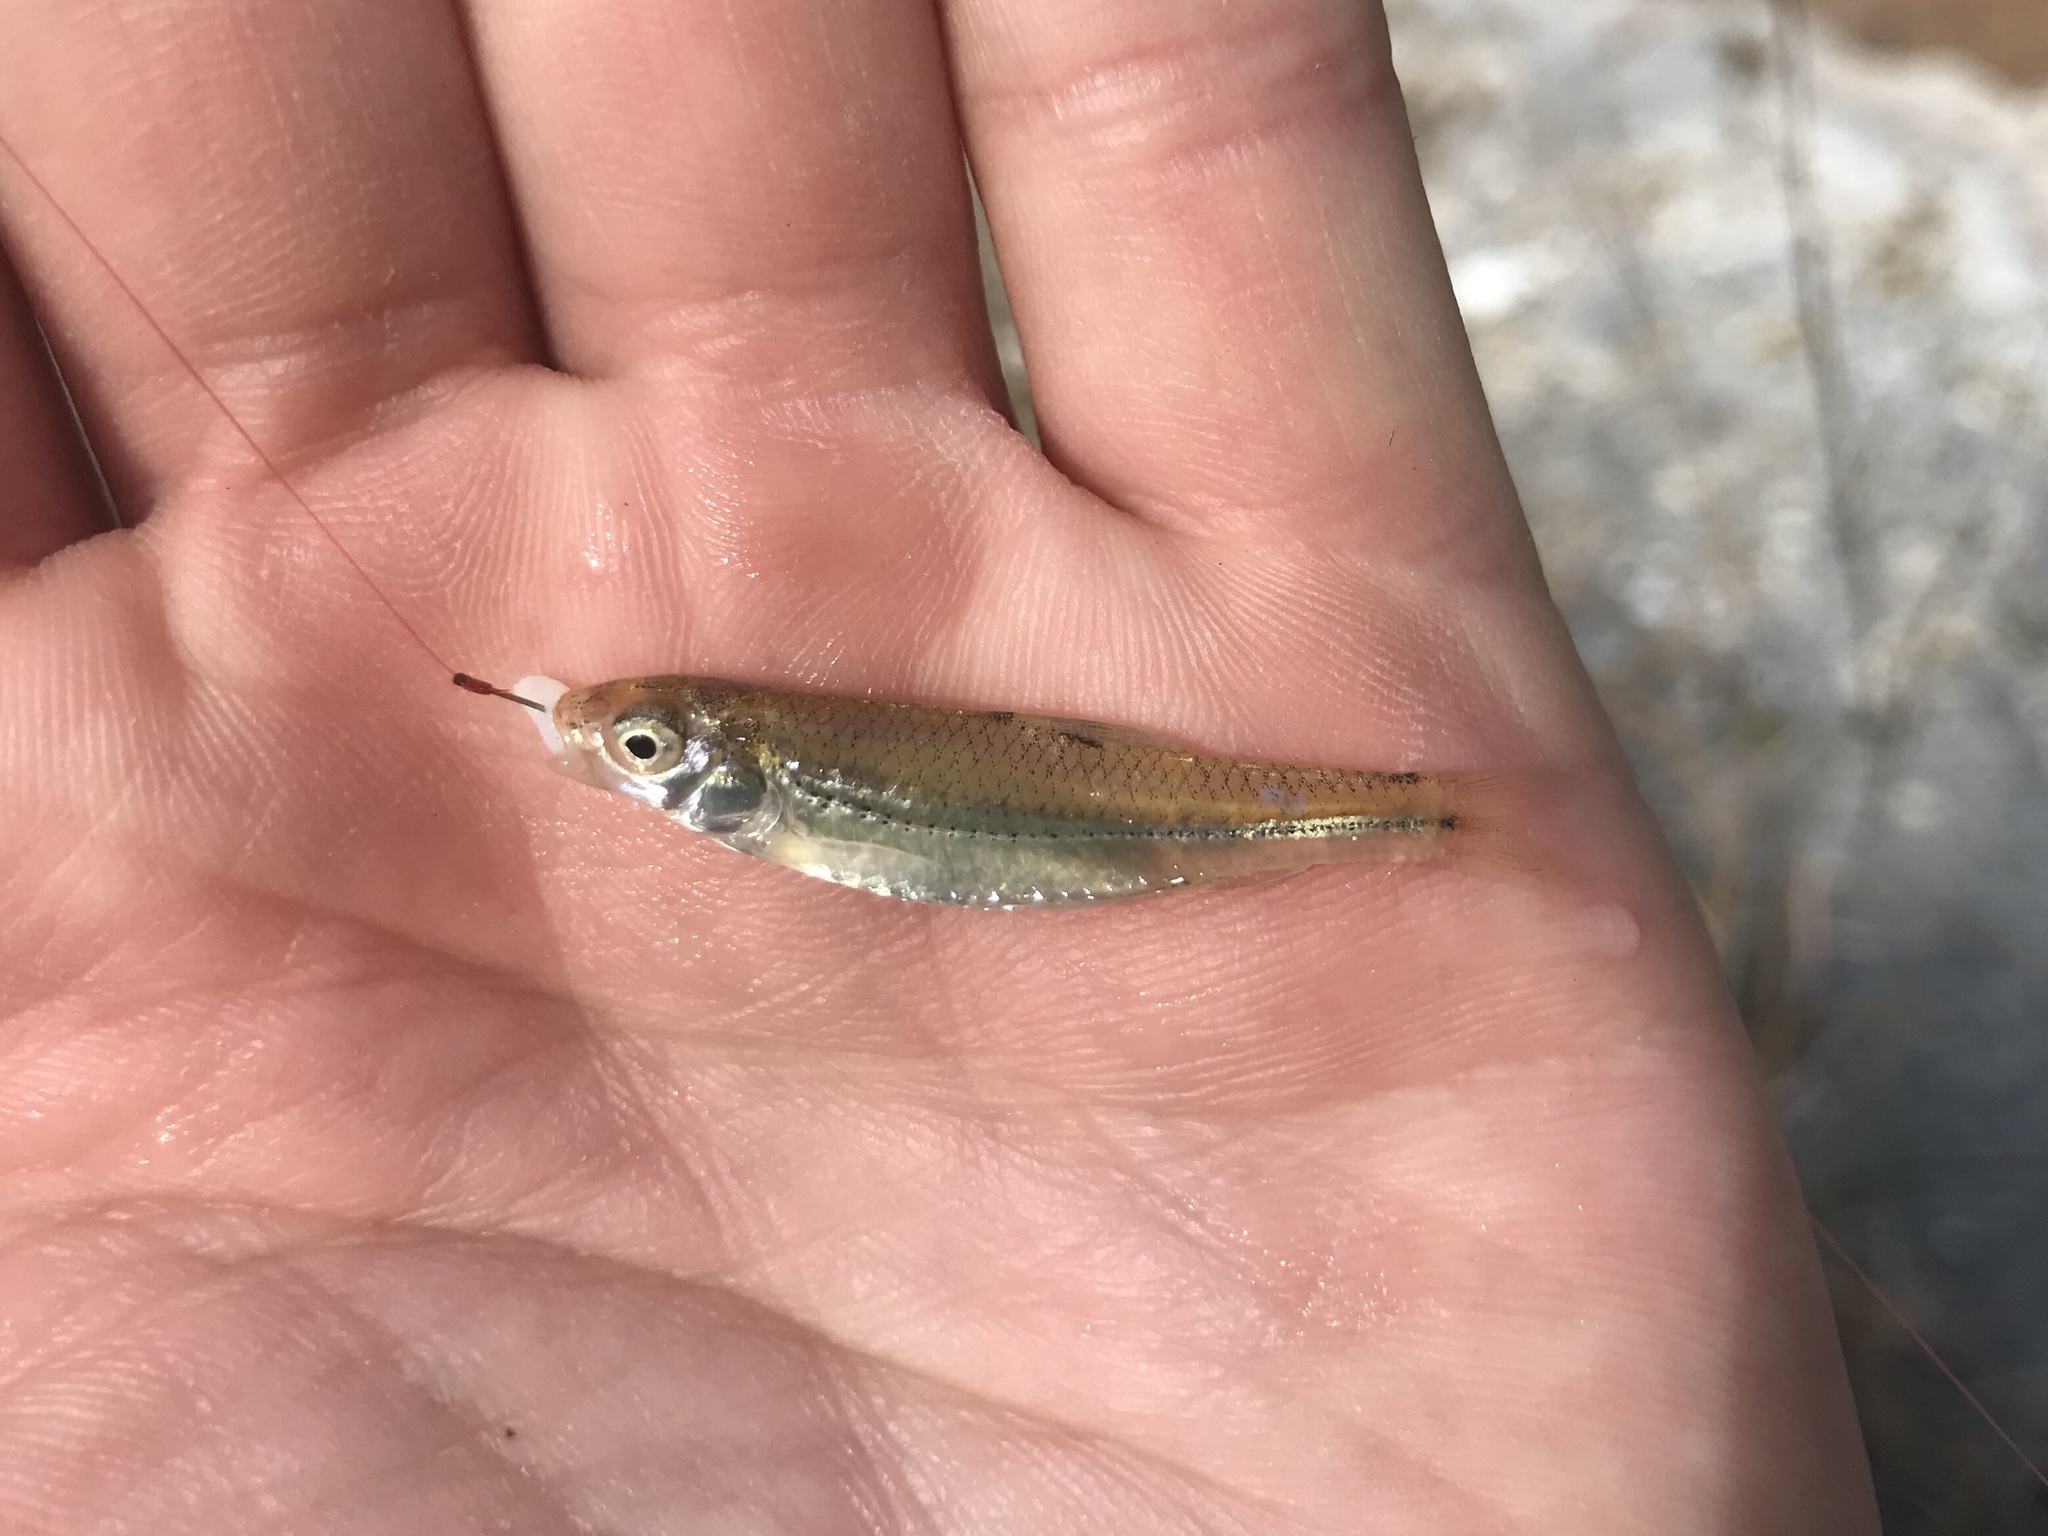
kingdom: Animalia
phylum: Chordata
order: Cypriniformes
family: Cyprinidae
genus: Notropis
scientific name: Notropis
